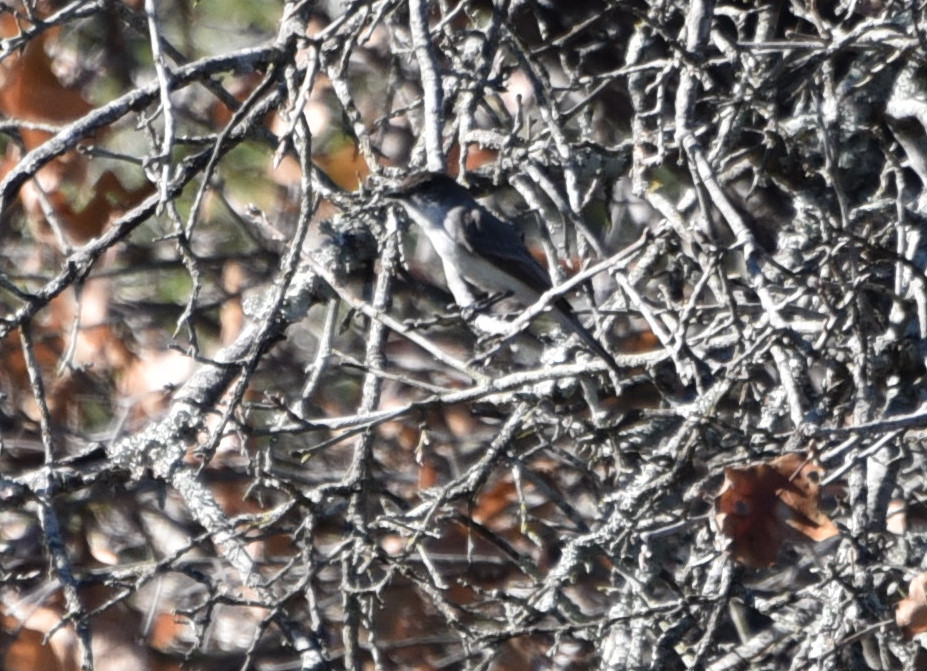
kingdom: Animalia
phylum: Chordata
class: Aves
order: Passeriformes
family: Tyrannidae
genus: Sayornis
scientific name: Sayornis phoebe
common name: Eastern phoebe
